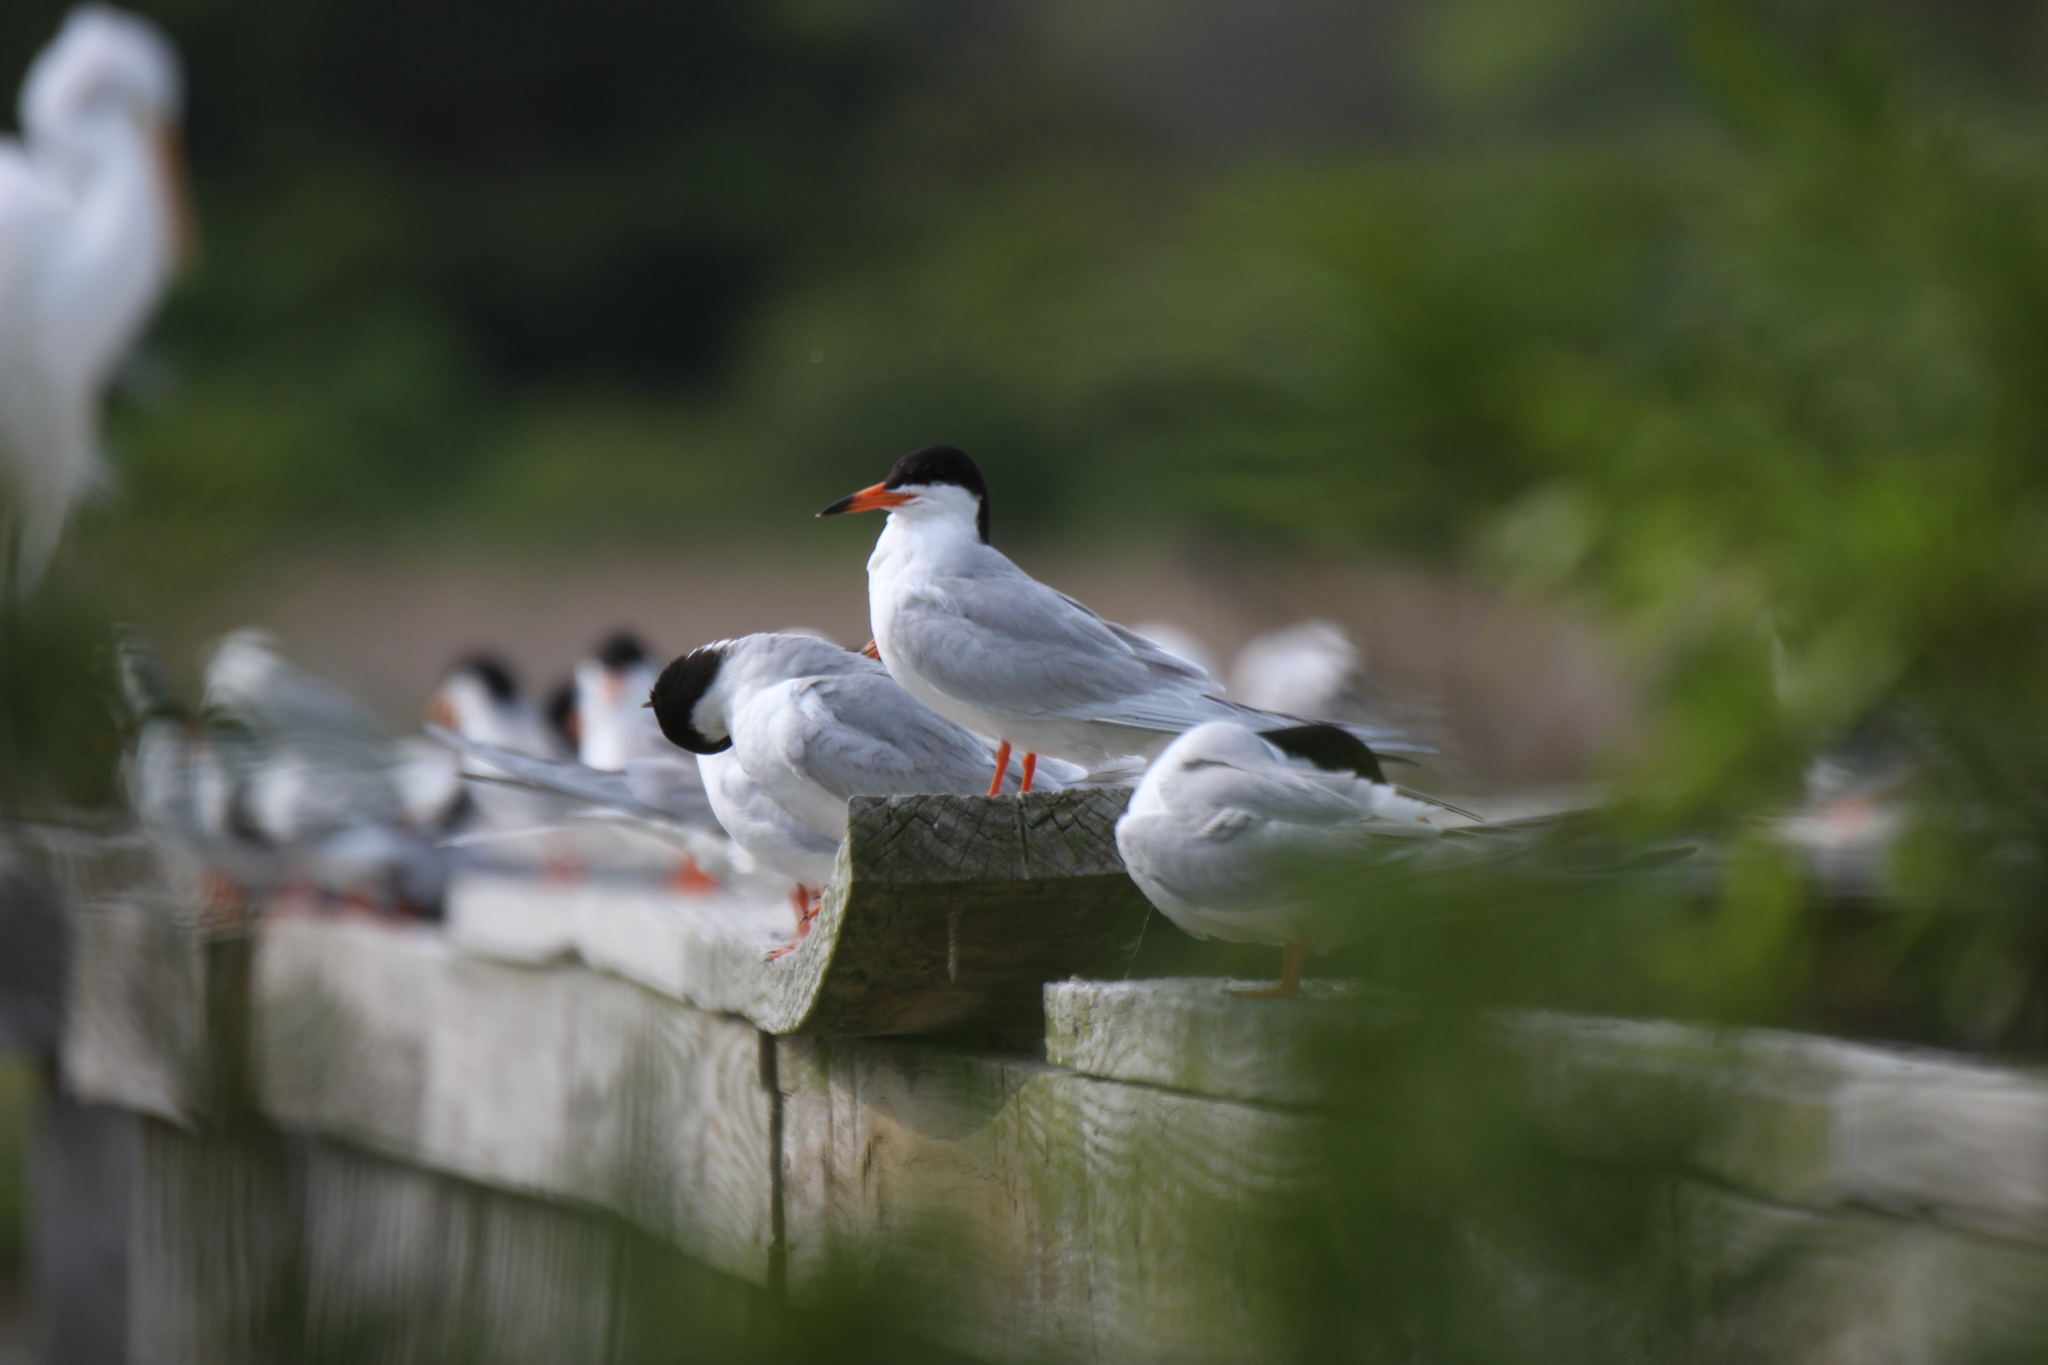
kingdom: Animalia
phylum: Chordata
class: Aves
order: Charadriiformes
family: Laridae
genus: Sterna
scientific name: Sterna forsteri
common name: Forster's tern
